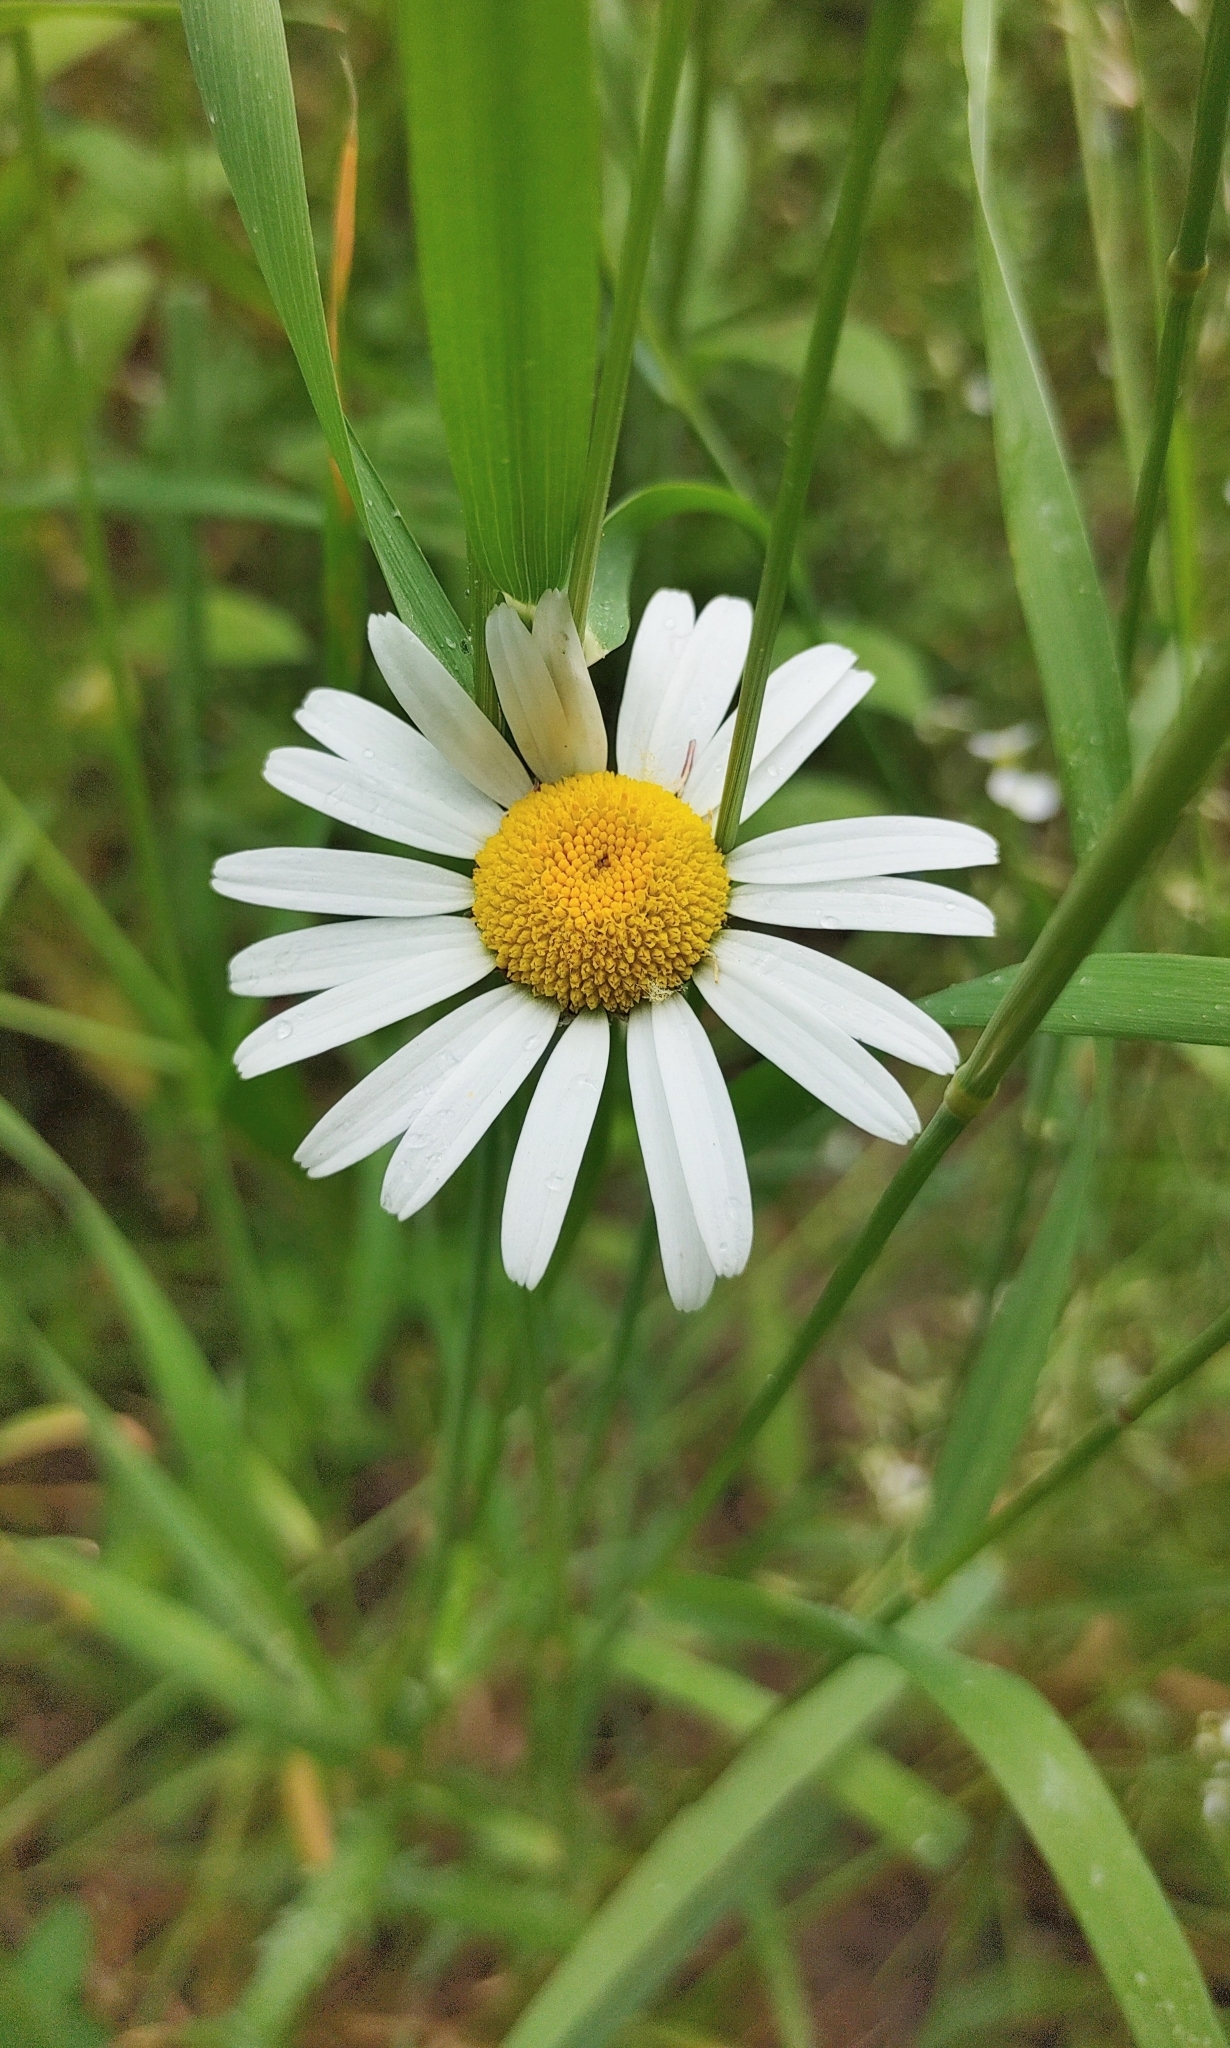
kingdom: Plantae
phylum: Tracheophyta
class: Magnoliopsida
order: Asterales
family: Asteraceae
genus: Leucanthemum
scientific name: Leucanthemum vulgare
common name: Oxeye daisy
